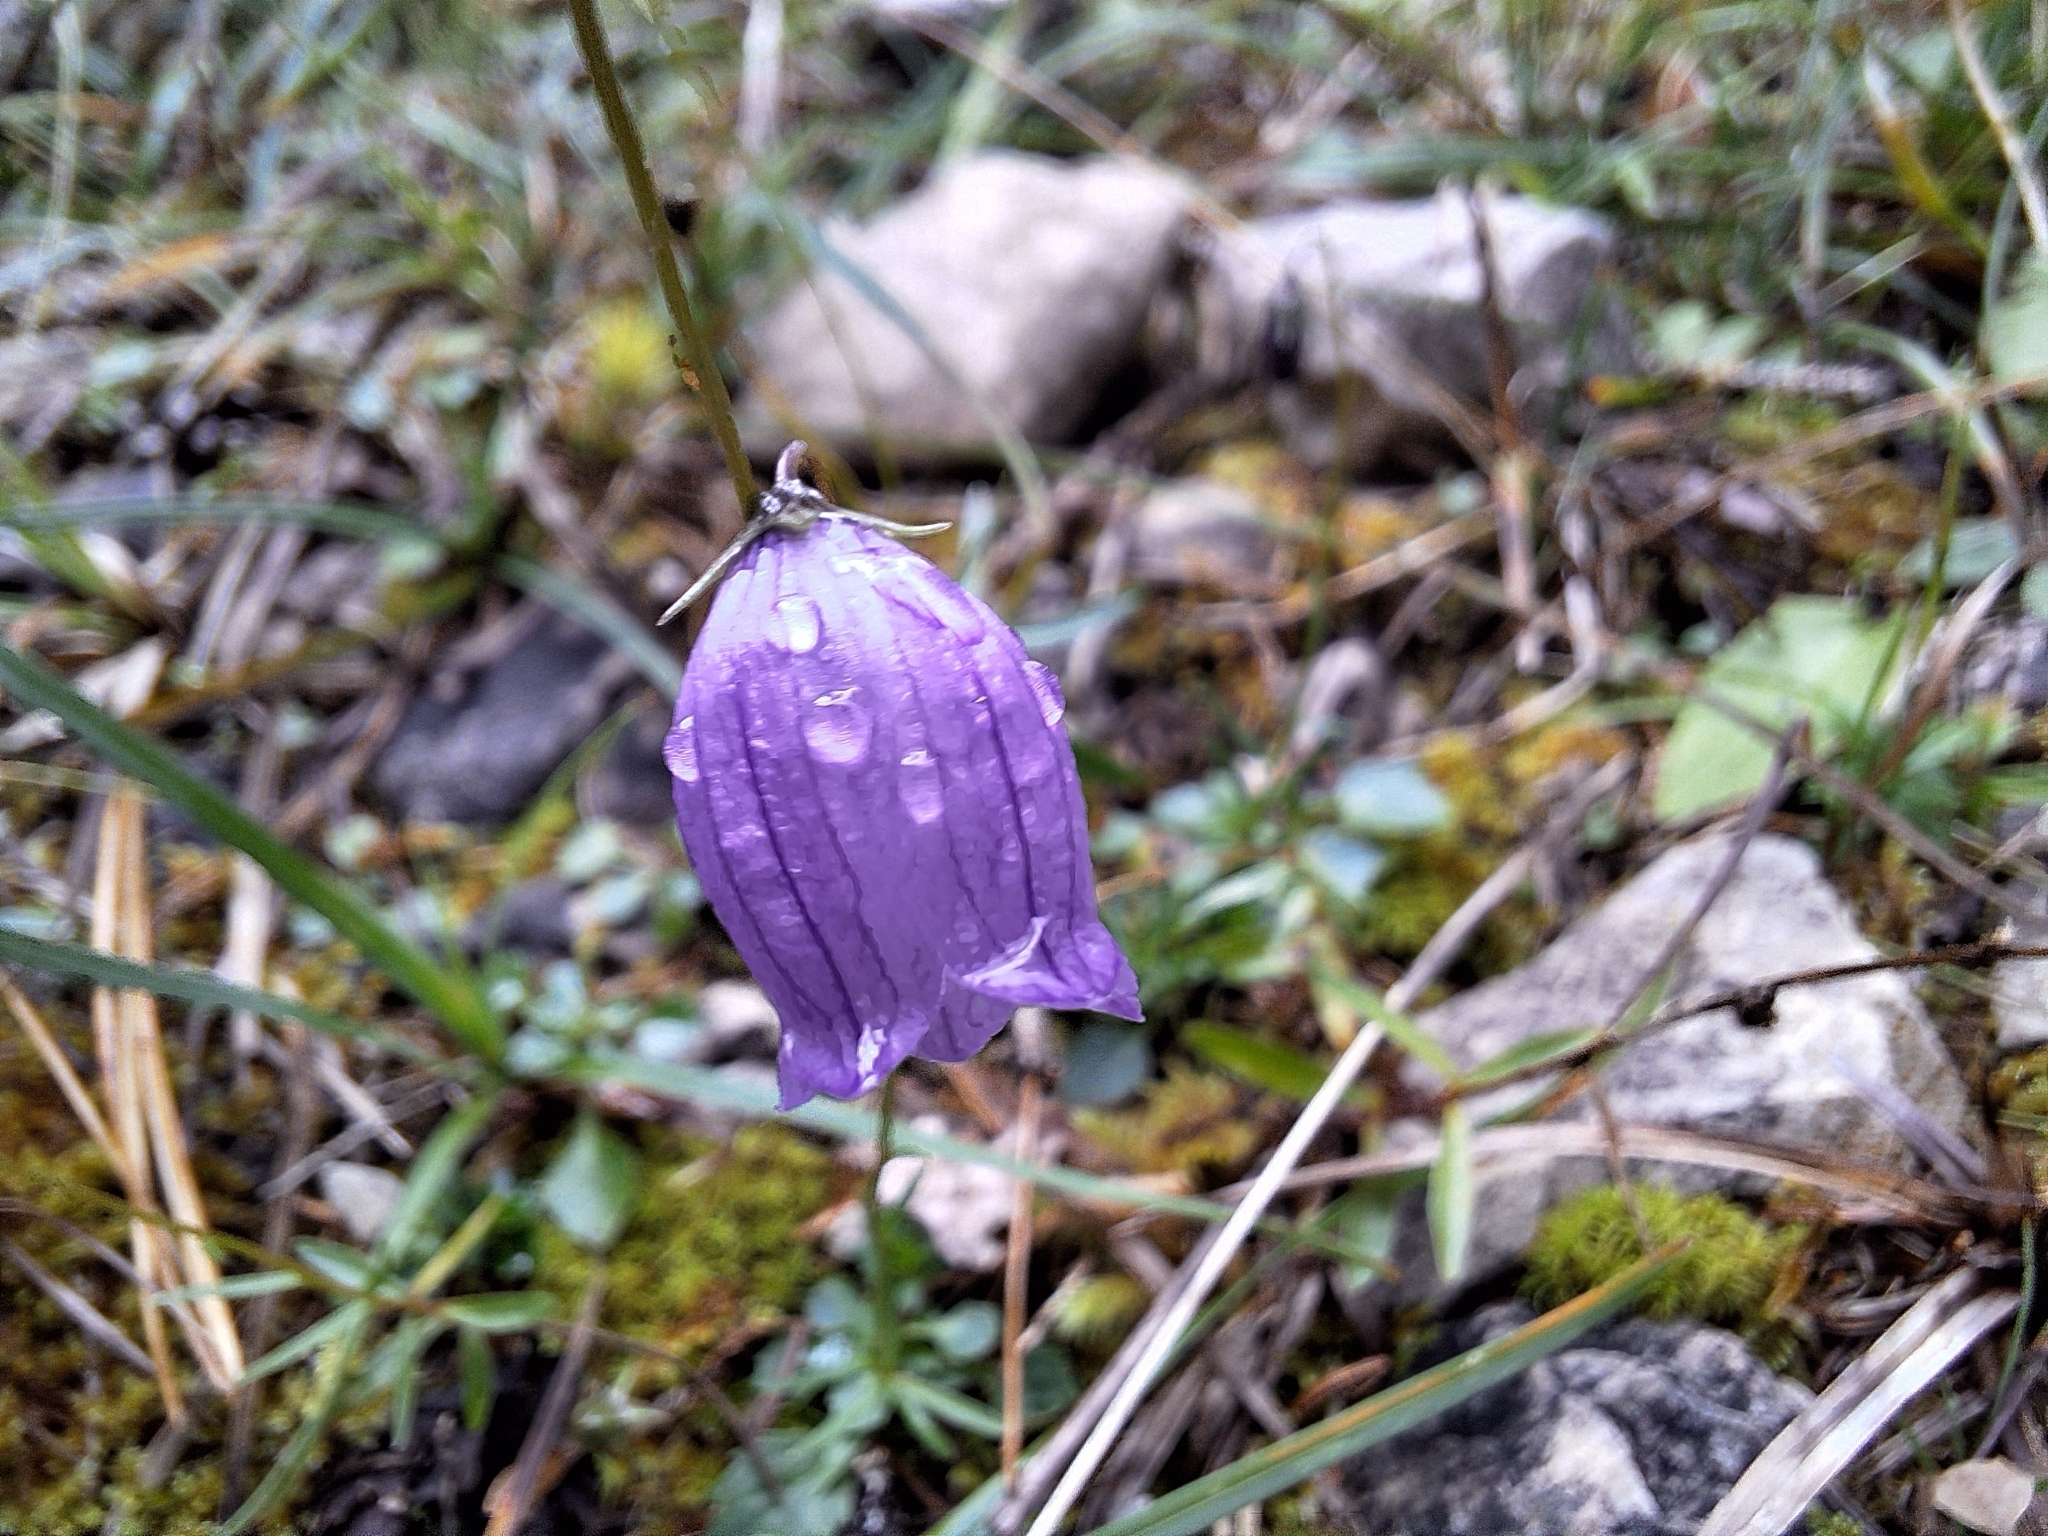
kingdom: Plantae
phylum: Tracheophyta
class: Magnoliopsida
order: Asterales
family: Campanulaceae
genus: Campanula
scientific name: Campanula cespitosa
